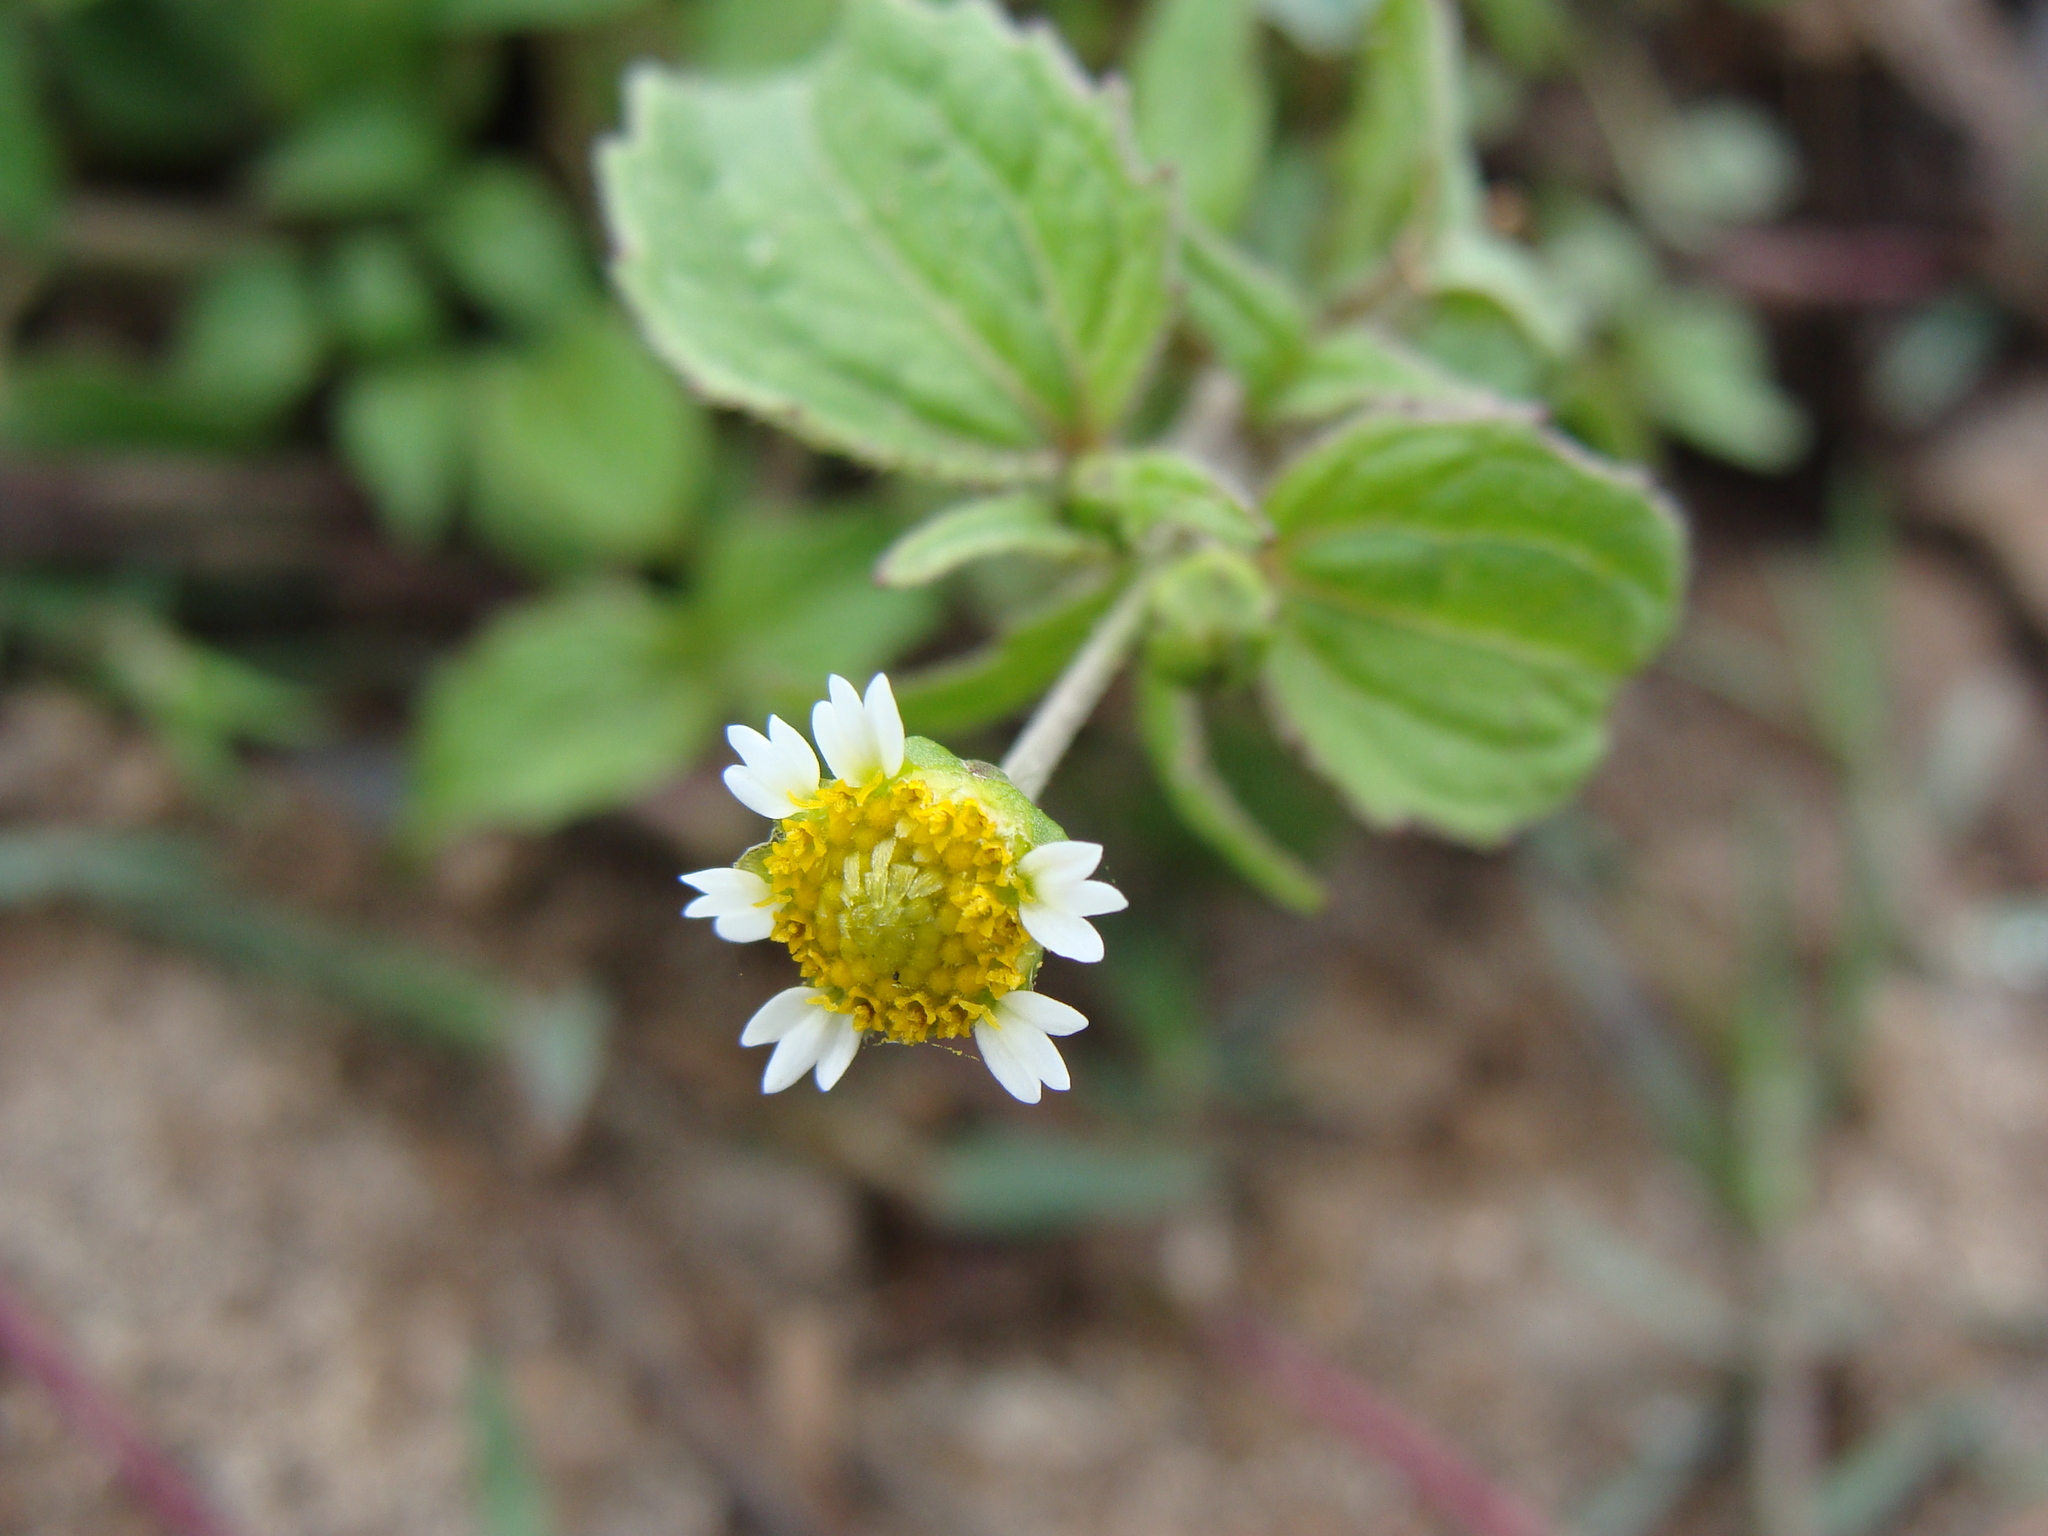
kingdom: Plantae
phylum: Tracheophyta
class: Magnoliopsida
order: Asterales
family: Asteraceae
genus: Galinsoga
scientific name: Galinsoga parviflora
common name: Gallant soldier
